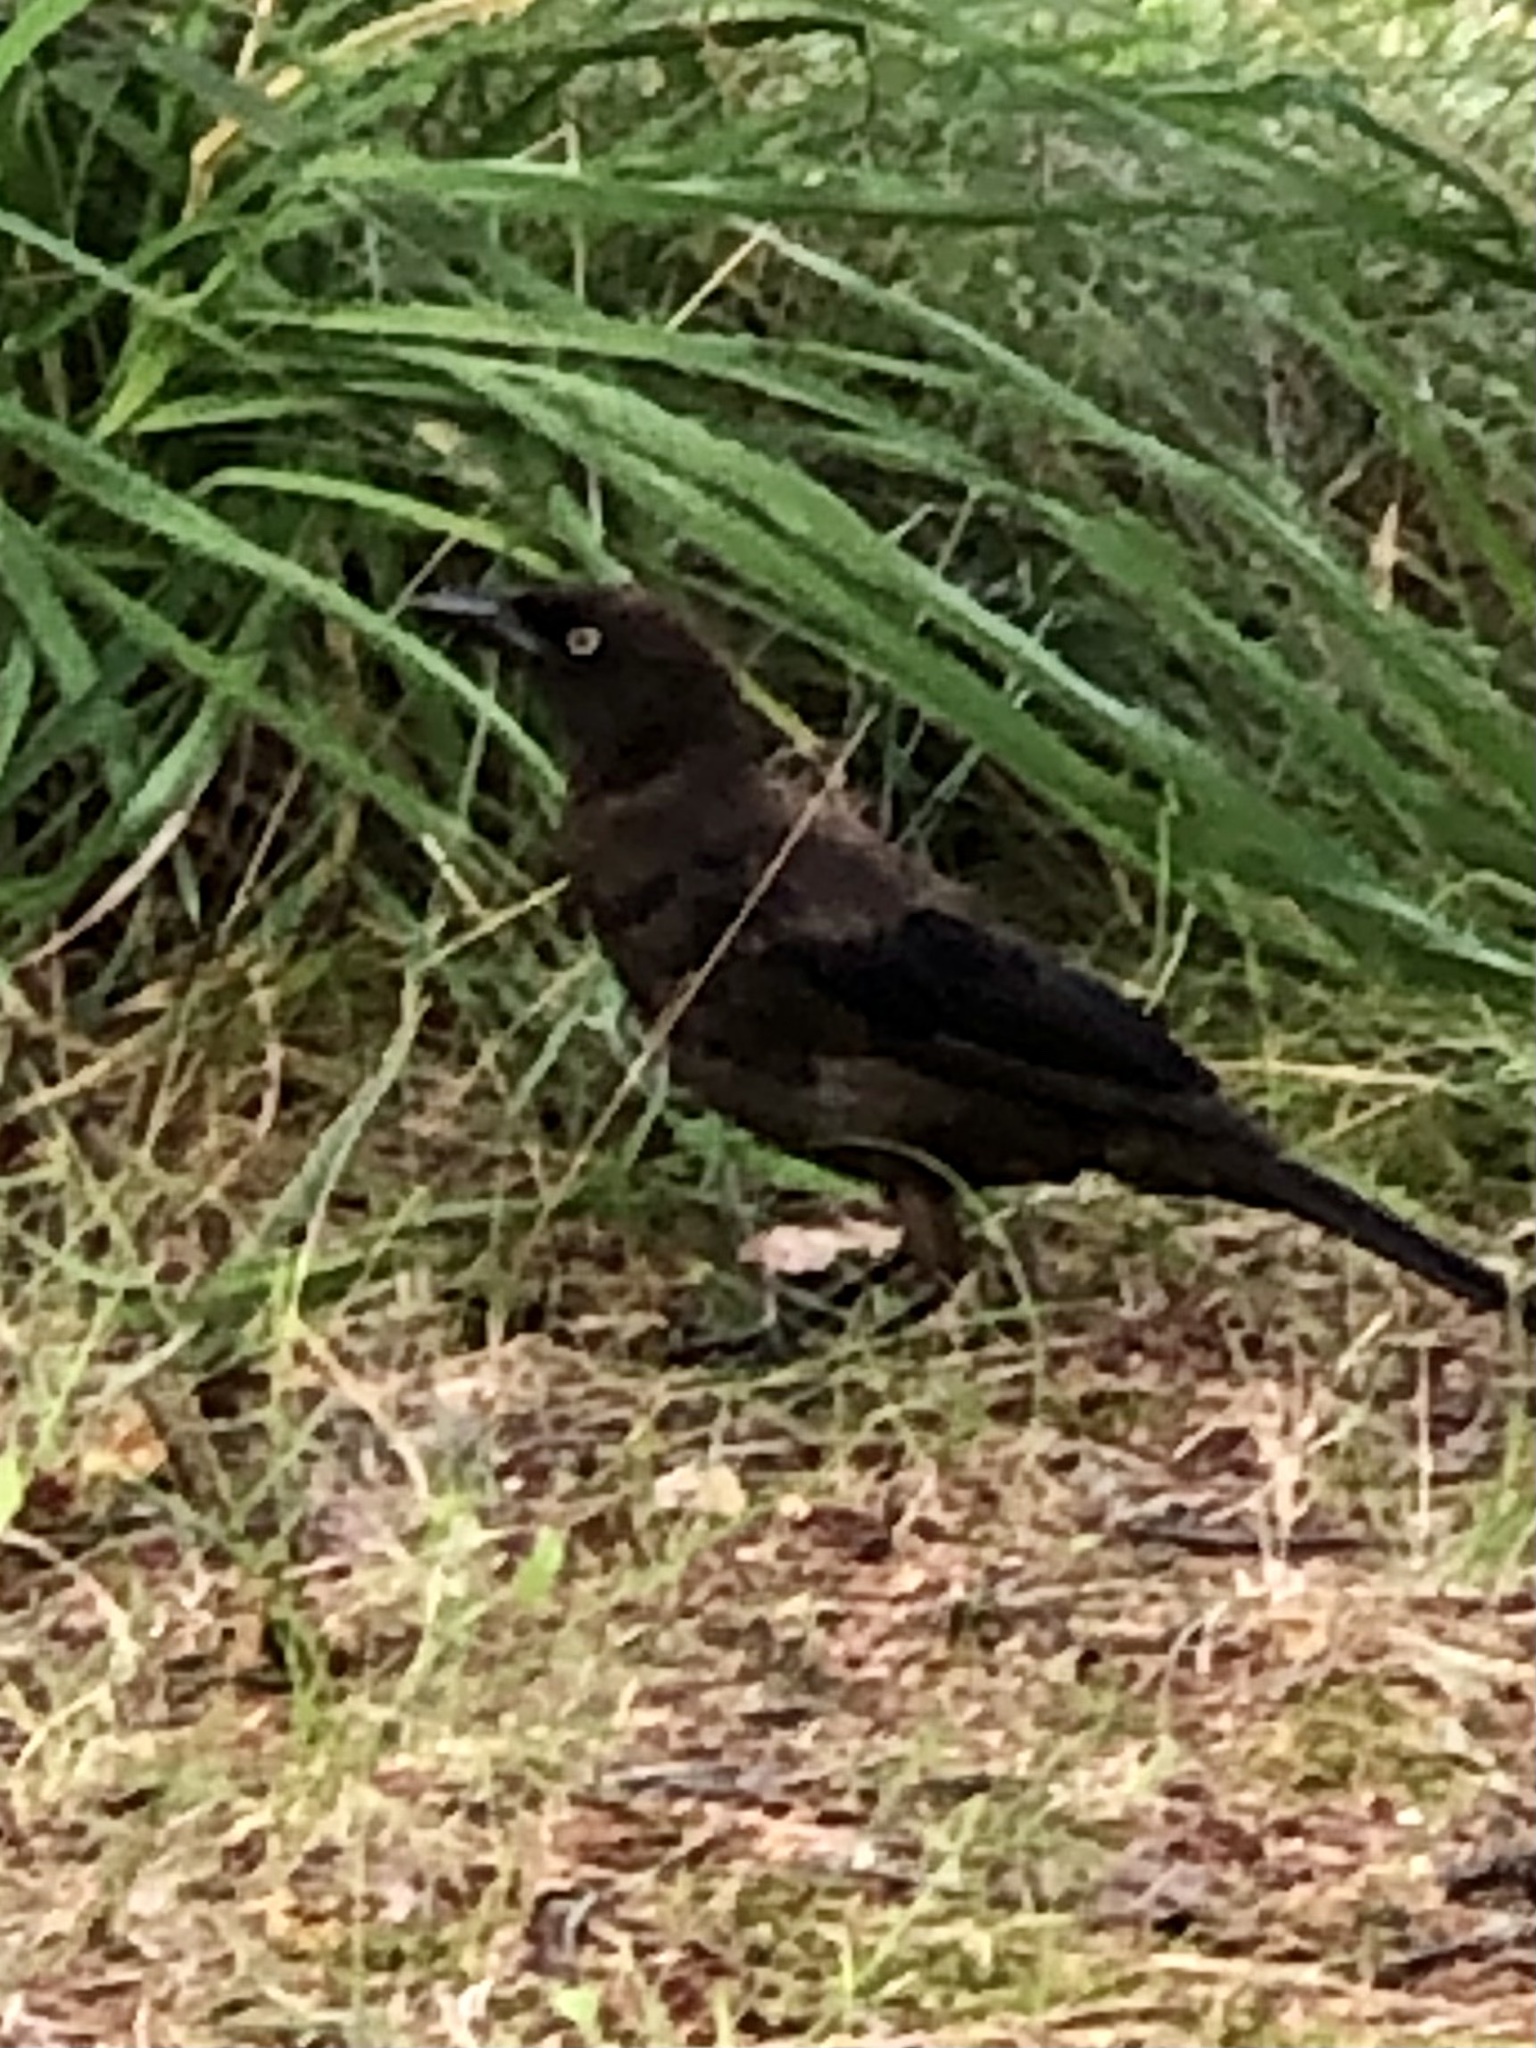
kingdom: Animalia
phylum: Chordata
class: Aves
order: Passeriformes
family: Icteridae
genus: Quiscalus
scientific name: Quiscalus quiscula
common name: Common grackle
